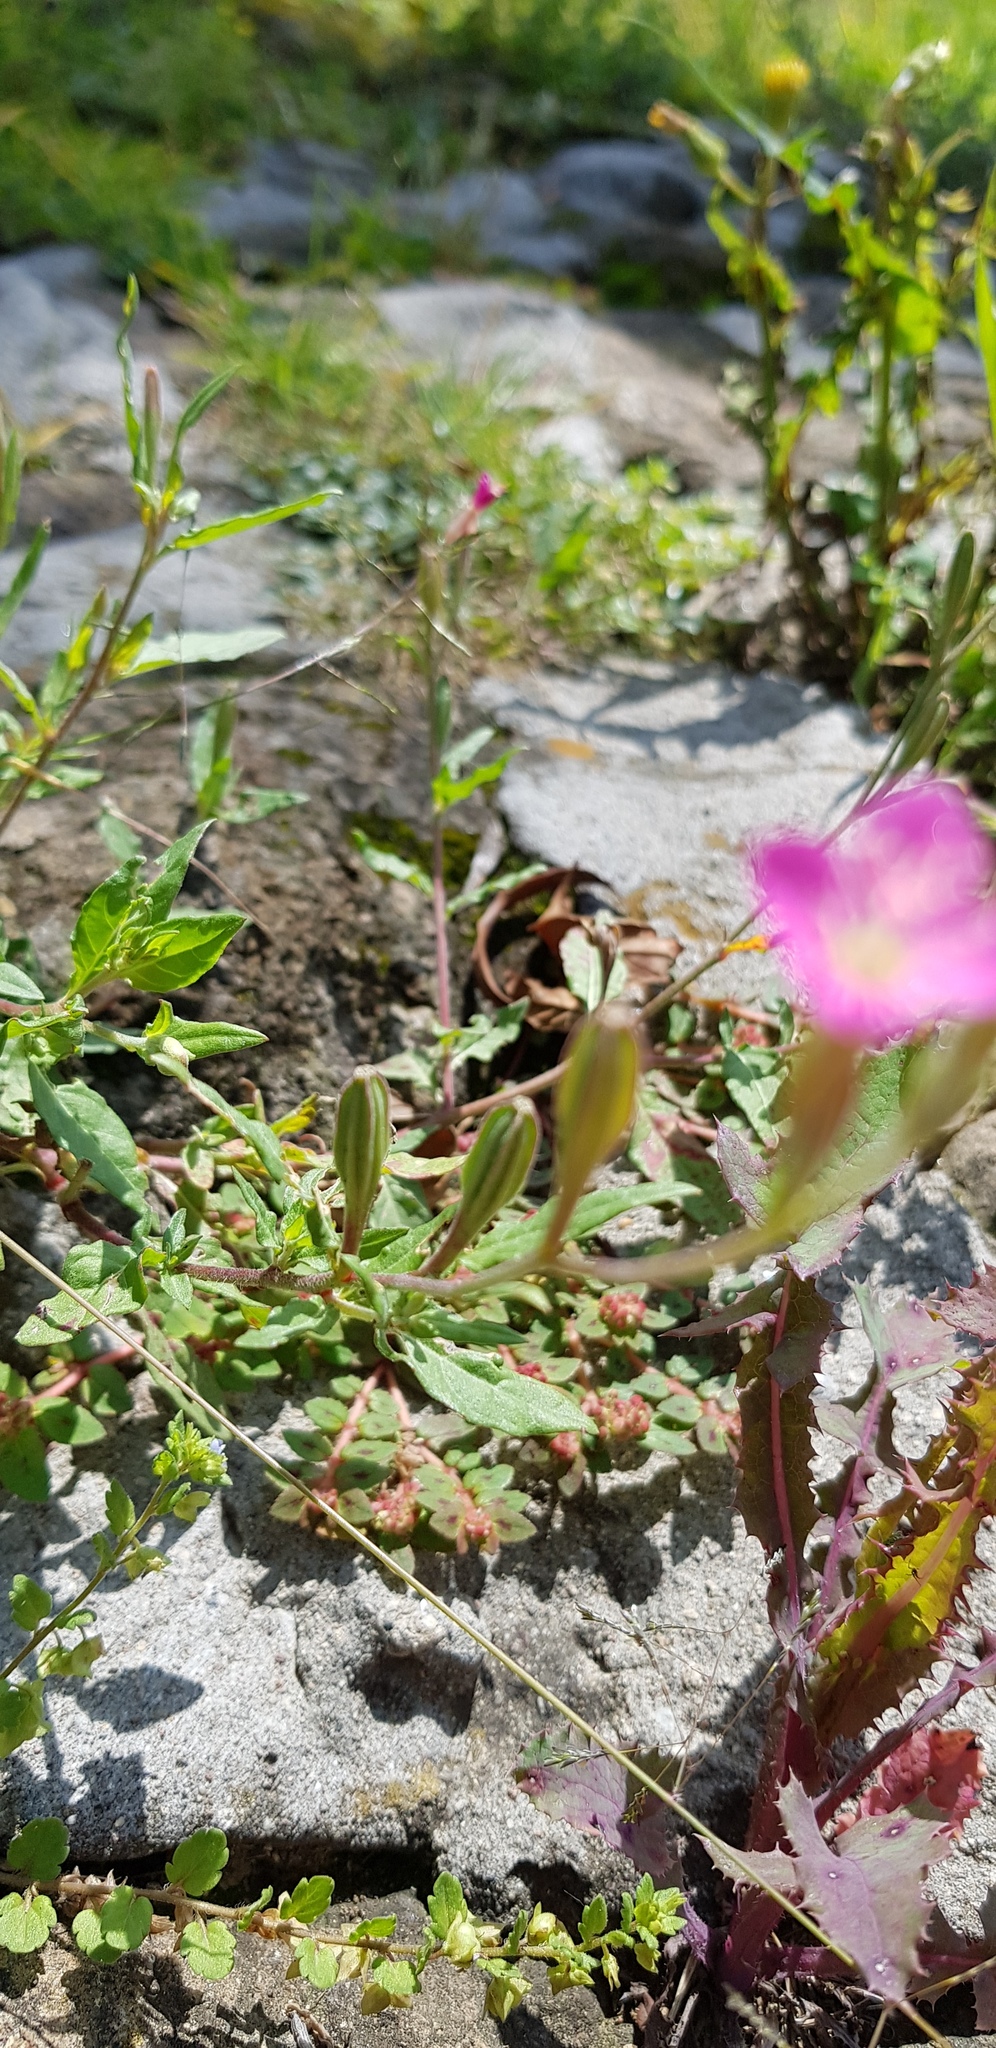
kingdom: Plantae
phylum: Tracheophyta
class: Magnoliopsida
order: Myrtales
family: Onagraceae
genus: Oenothera
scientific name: Oenothera rosea
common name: Rosy evening-primrose
